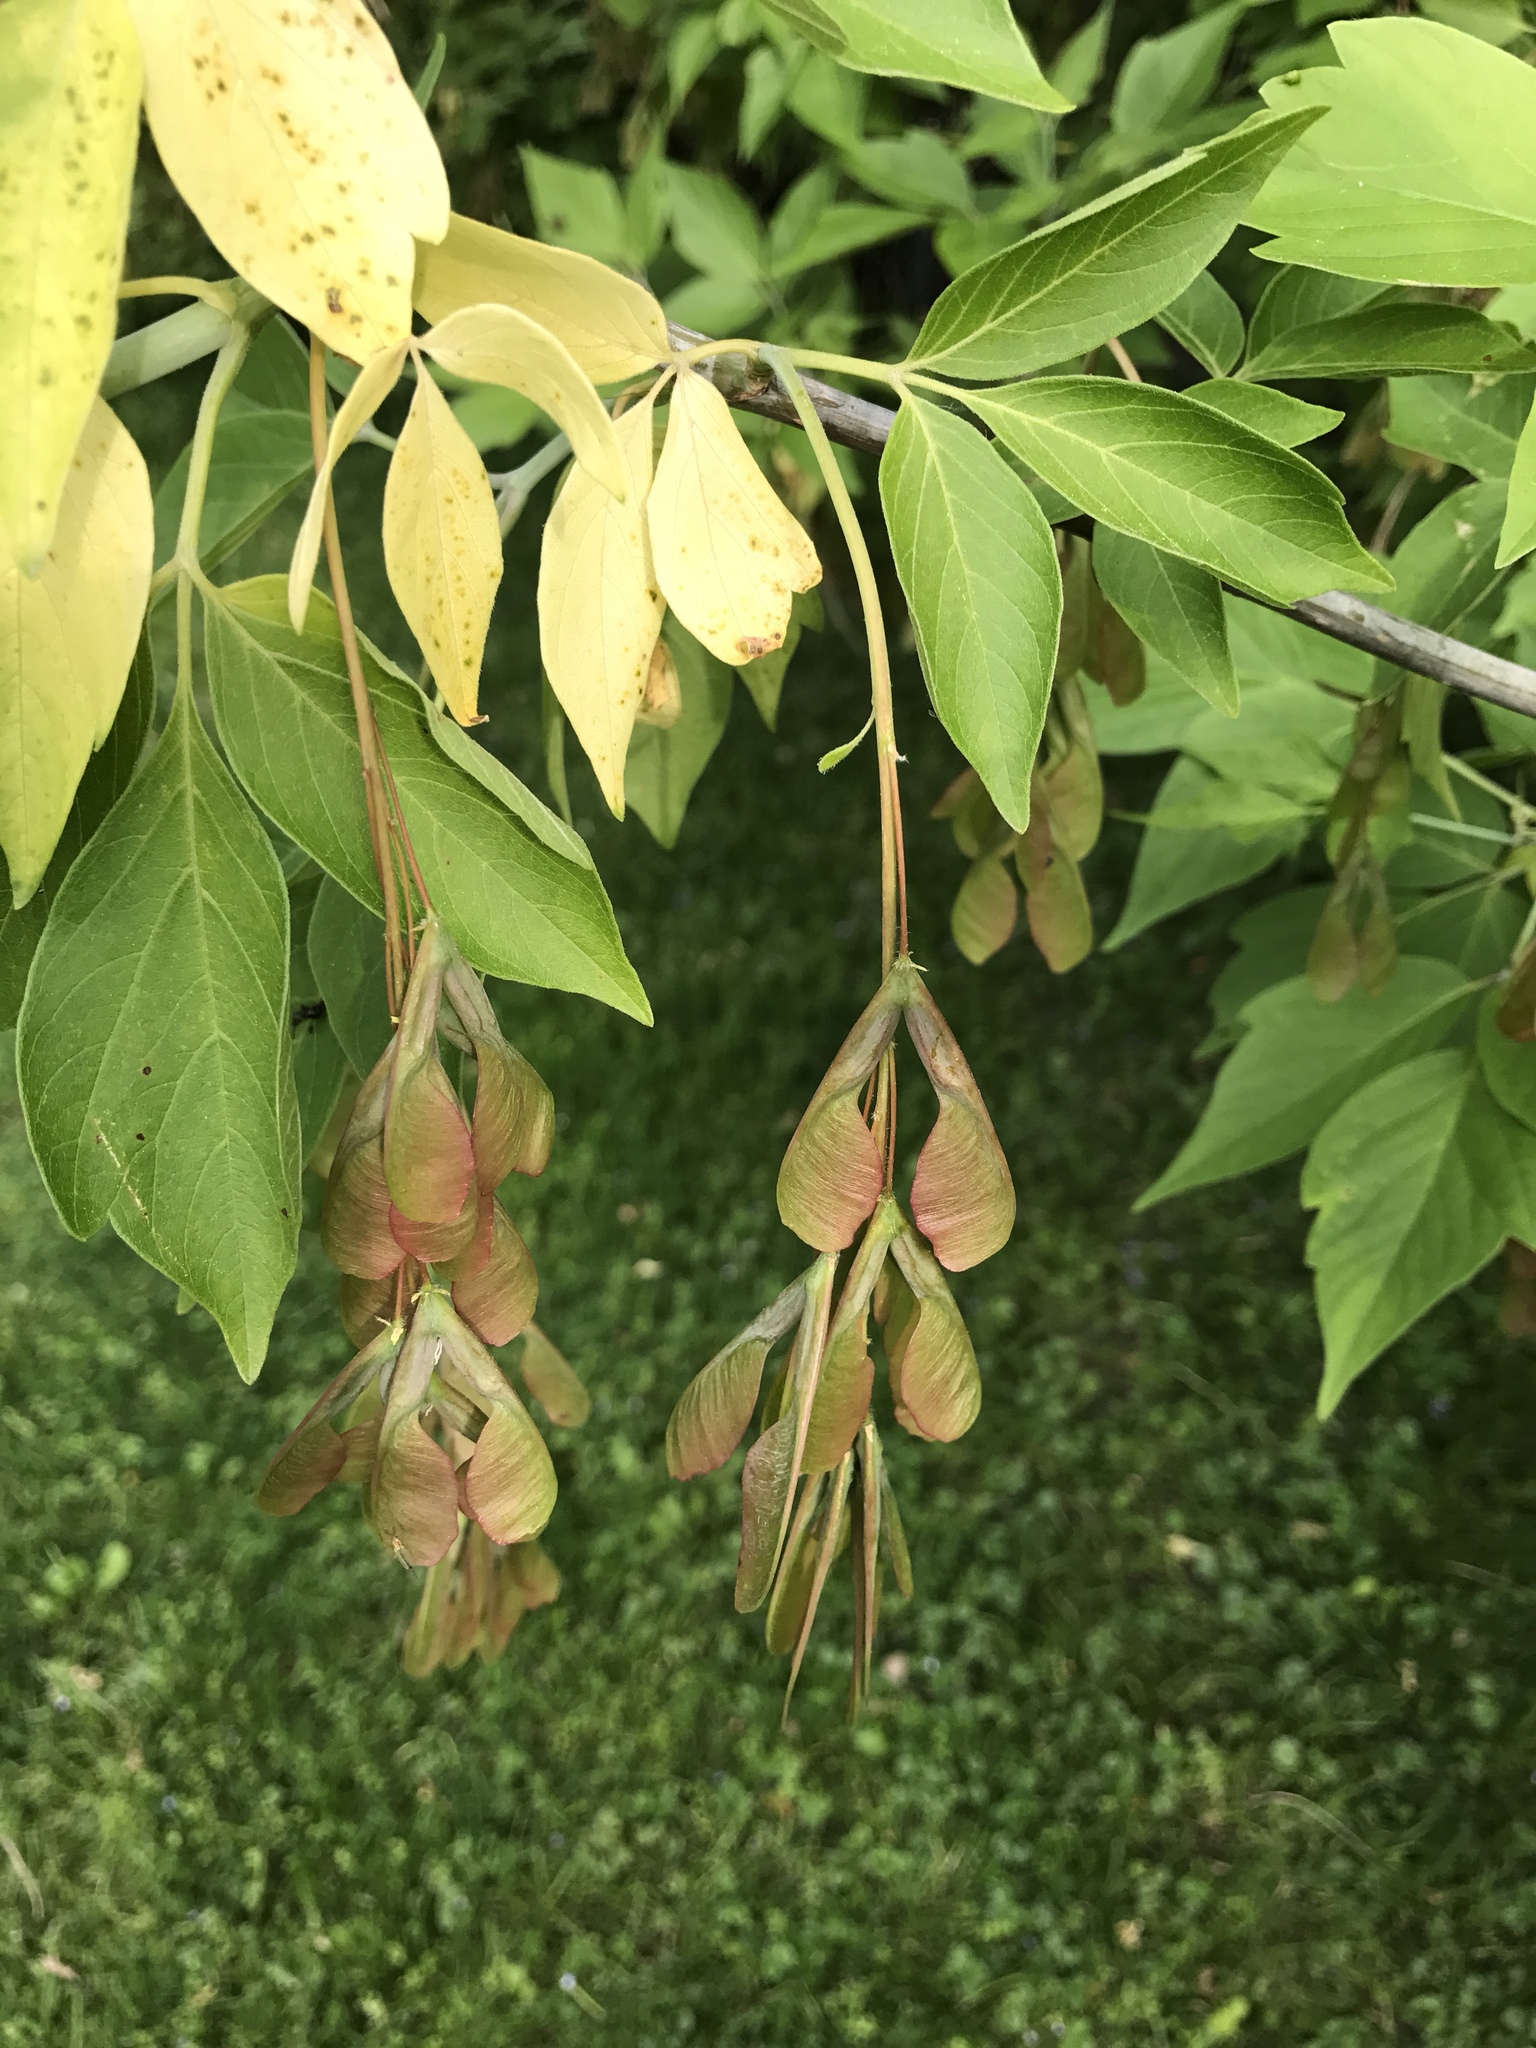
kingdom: Plantae
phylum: Tracheophyta
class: Magnoliopsida
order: Sapindales
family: Sapindaceae
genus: Acer
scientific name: Acer negundo
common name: Ashleaf maple
